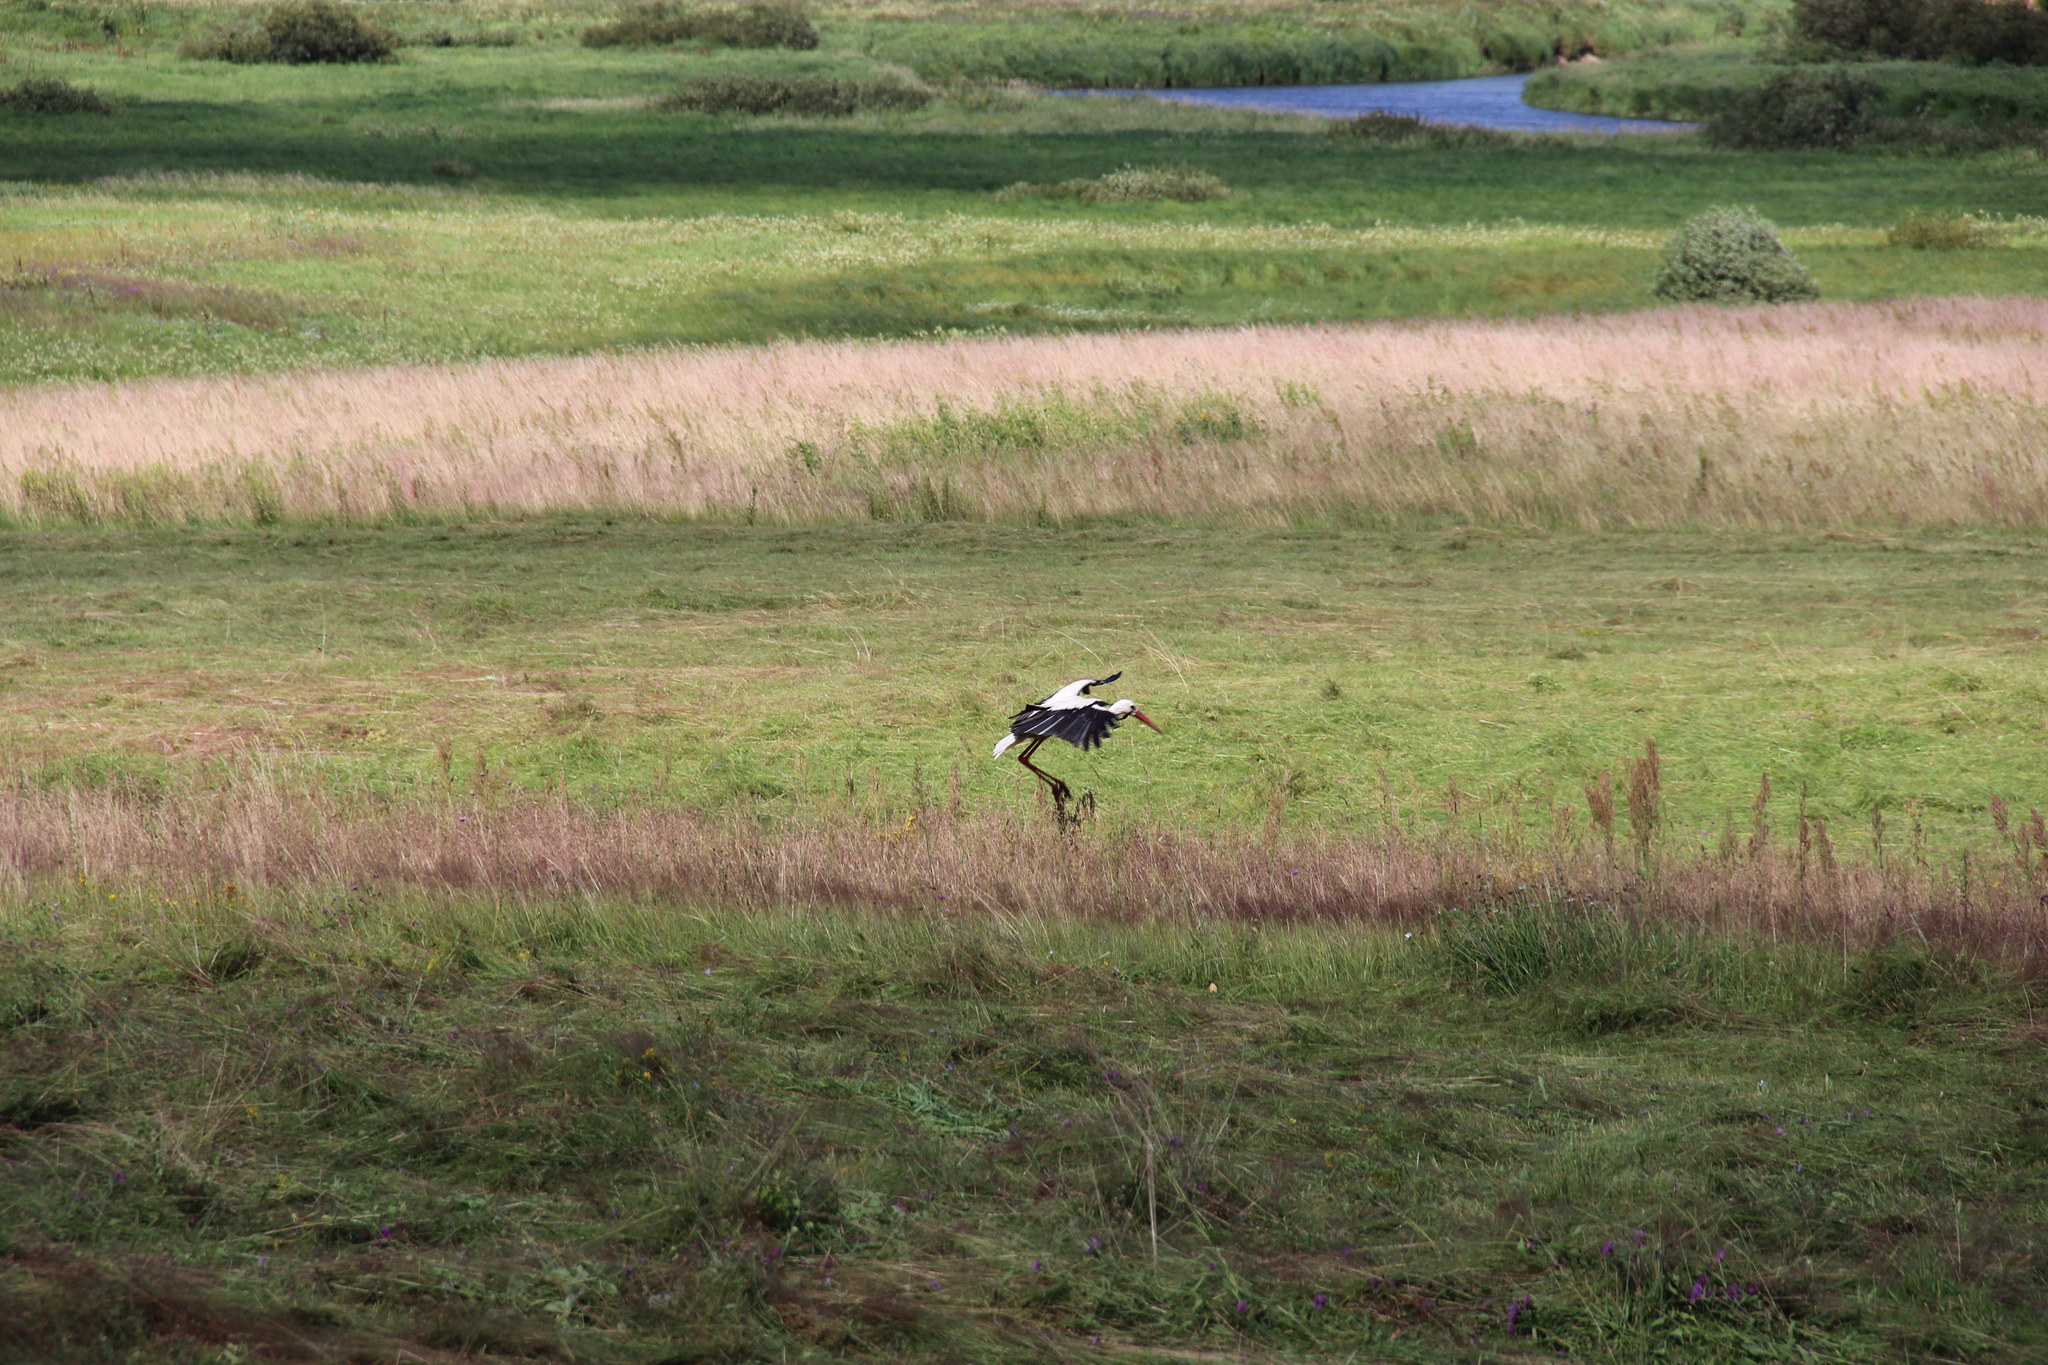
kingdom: Animalia
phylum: Chordata
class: Aves
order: Ciconiiformes
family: Ciconiidae
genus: Ciconia
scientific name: Ciconia ciconia
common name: White stork
